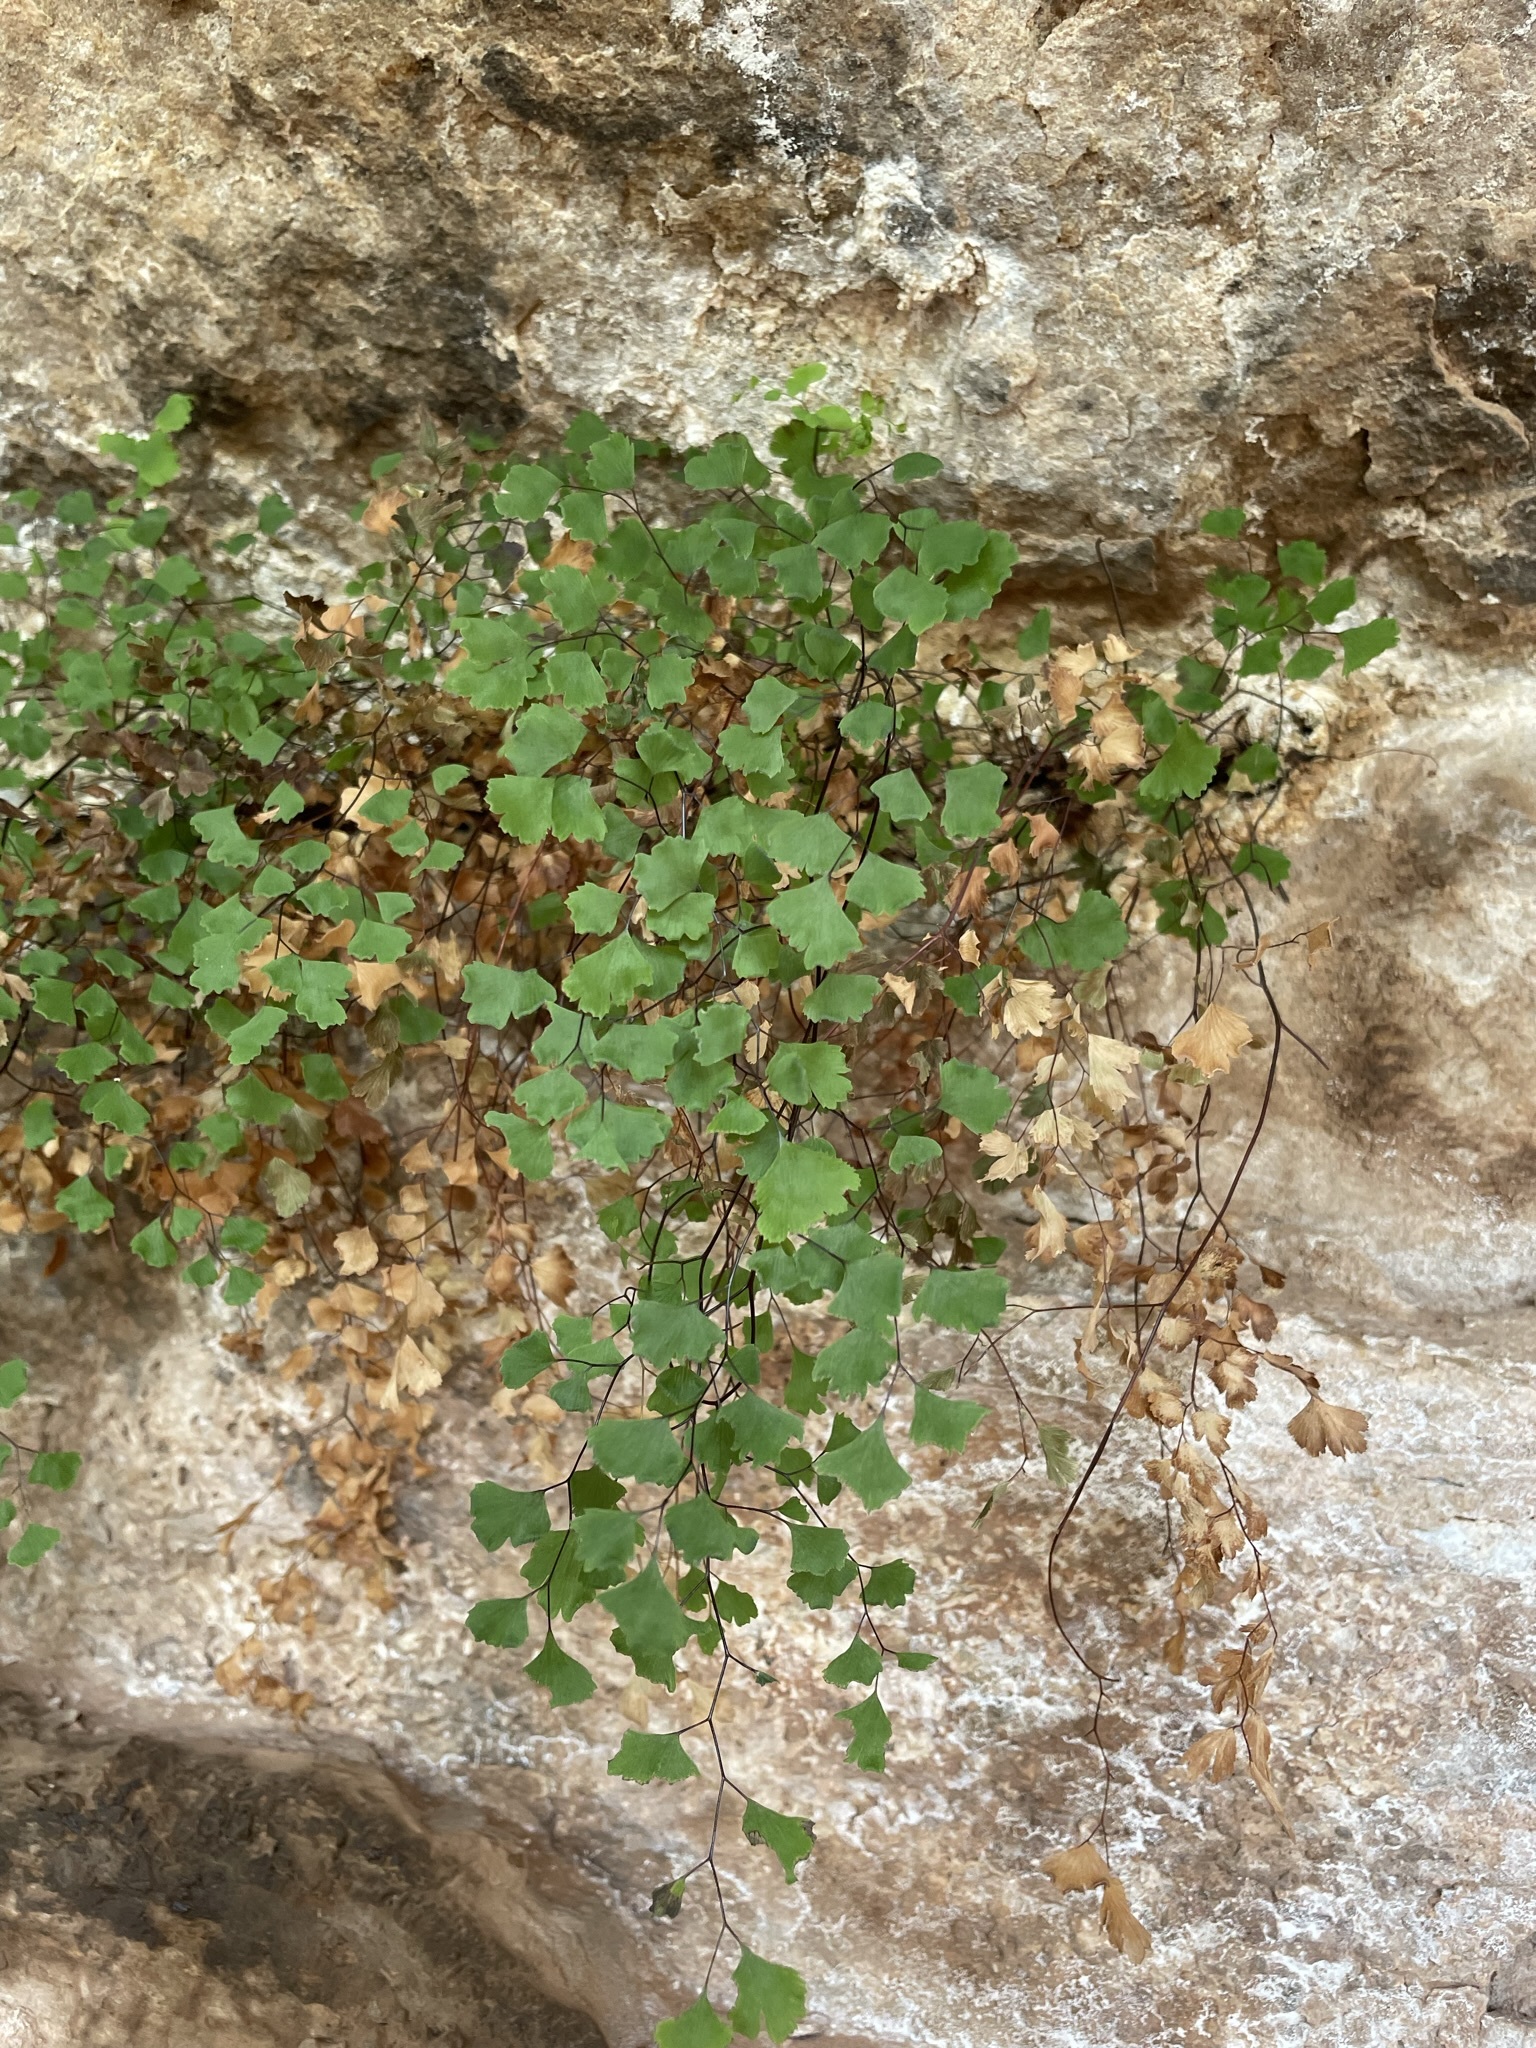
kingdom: Plantae
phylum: Tracheophyta
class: Polypodiopsida
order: Polypodiales
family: Pteridaceae
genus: Adiantum
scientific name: Adiantum capillus-veneris
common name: Maidenhair fern
